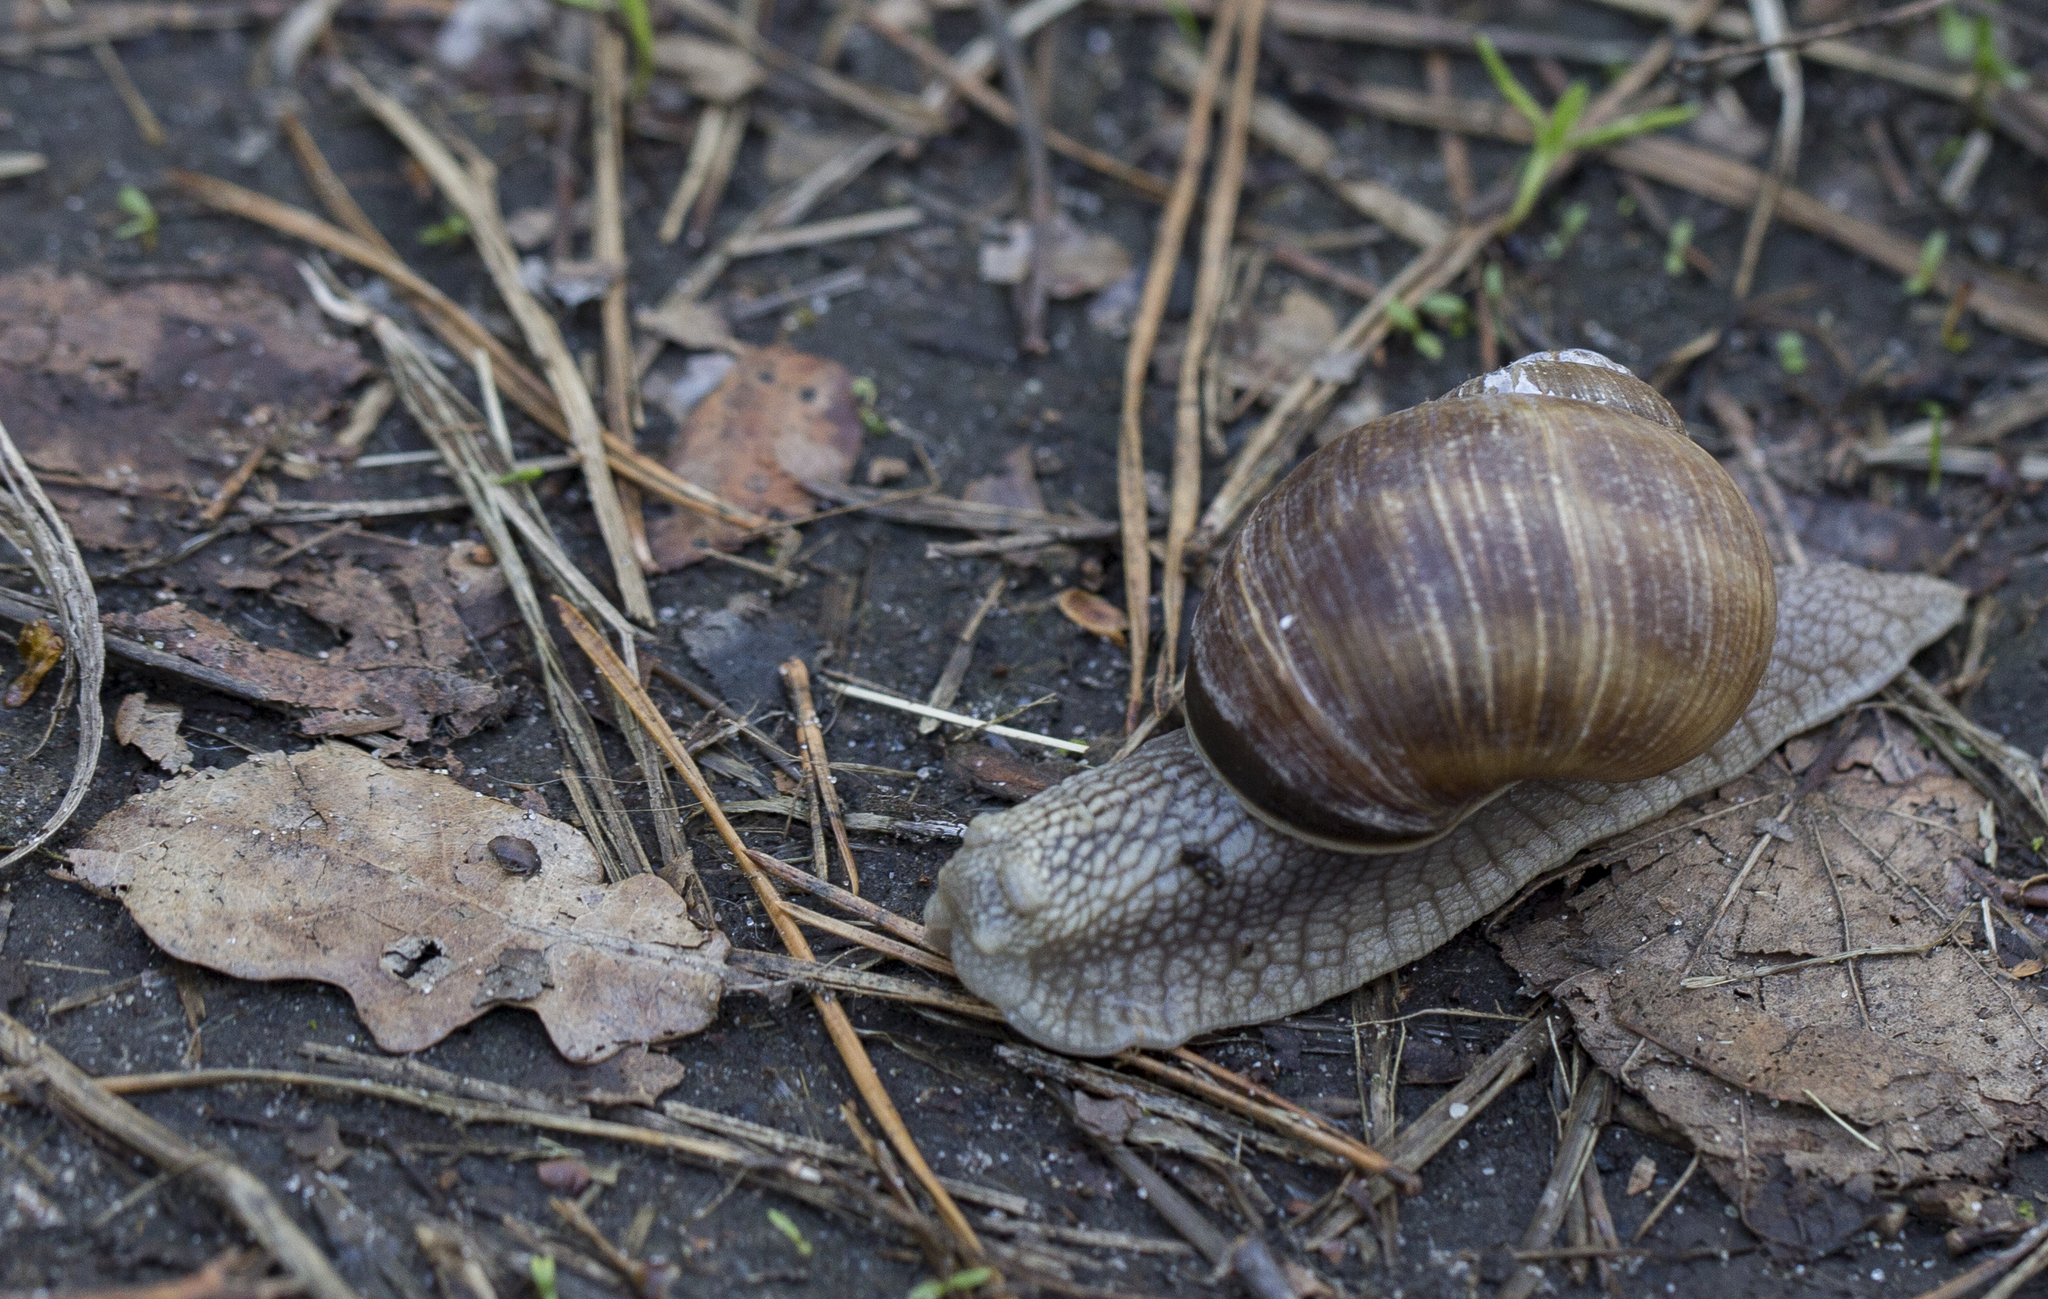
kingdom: Animalia
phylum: Mollusca
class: Gastropoda
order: Stylommatophora
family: Helicidae
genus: Helix
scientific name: Helix pomatia
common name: Roman snail
